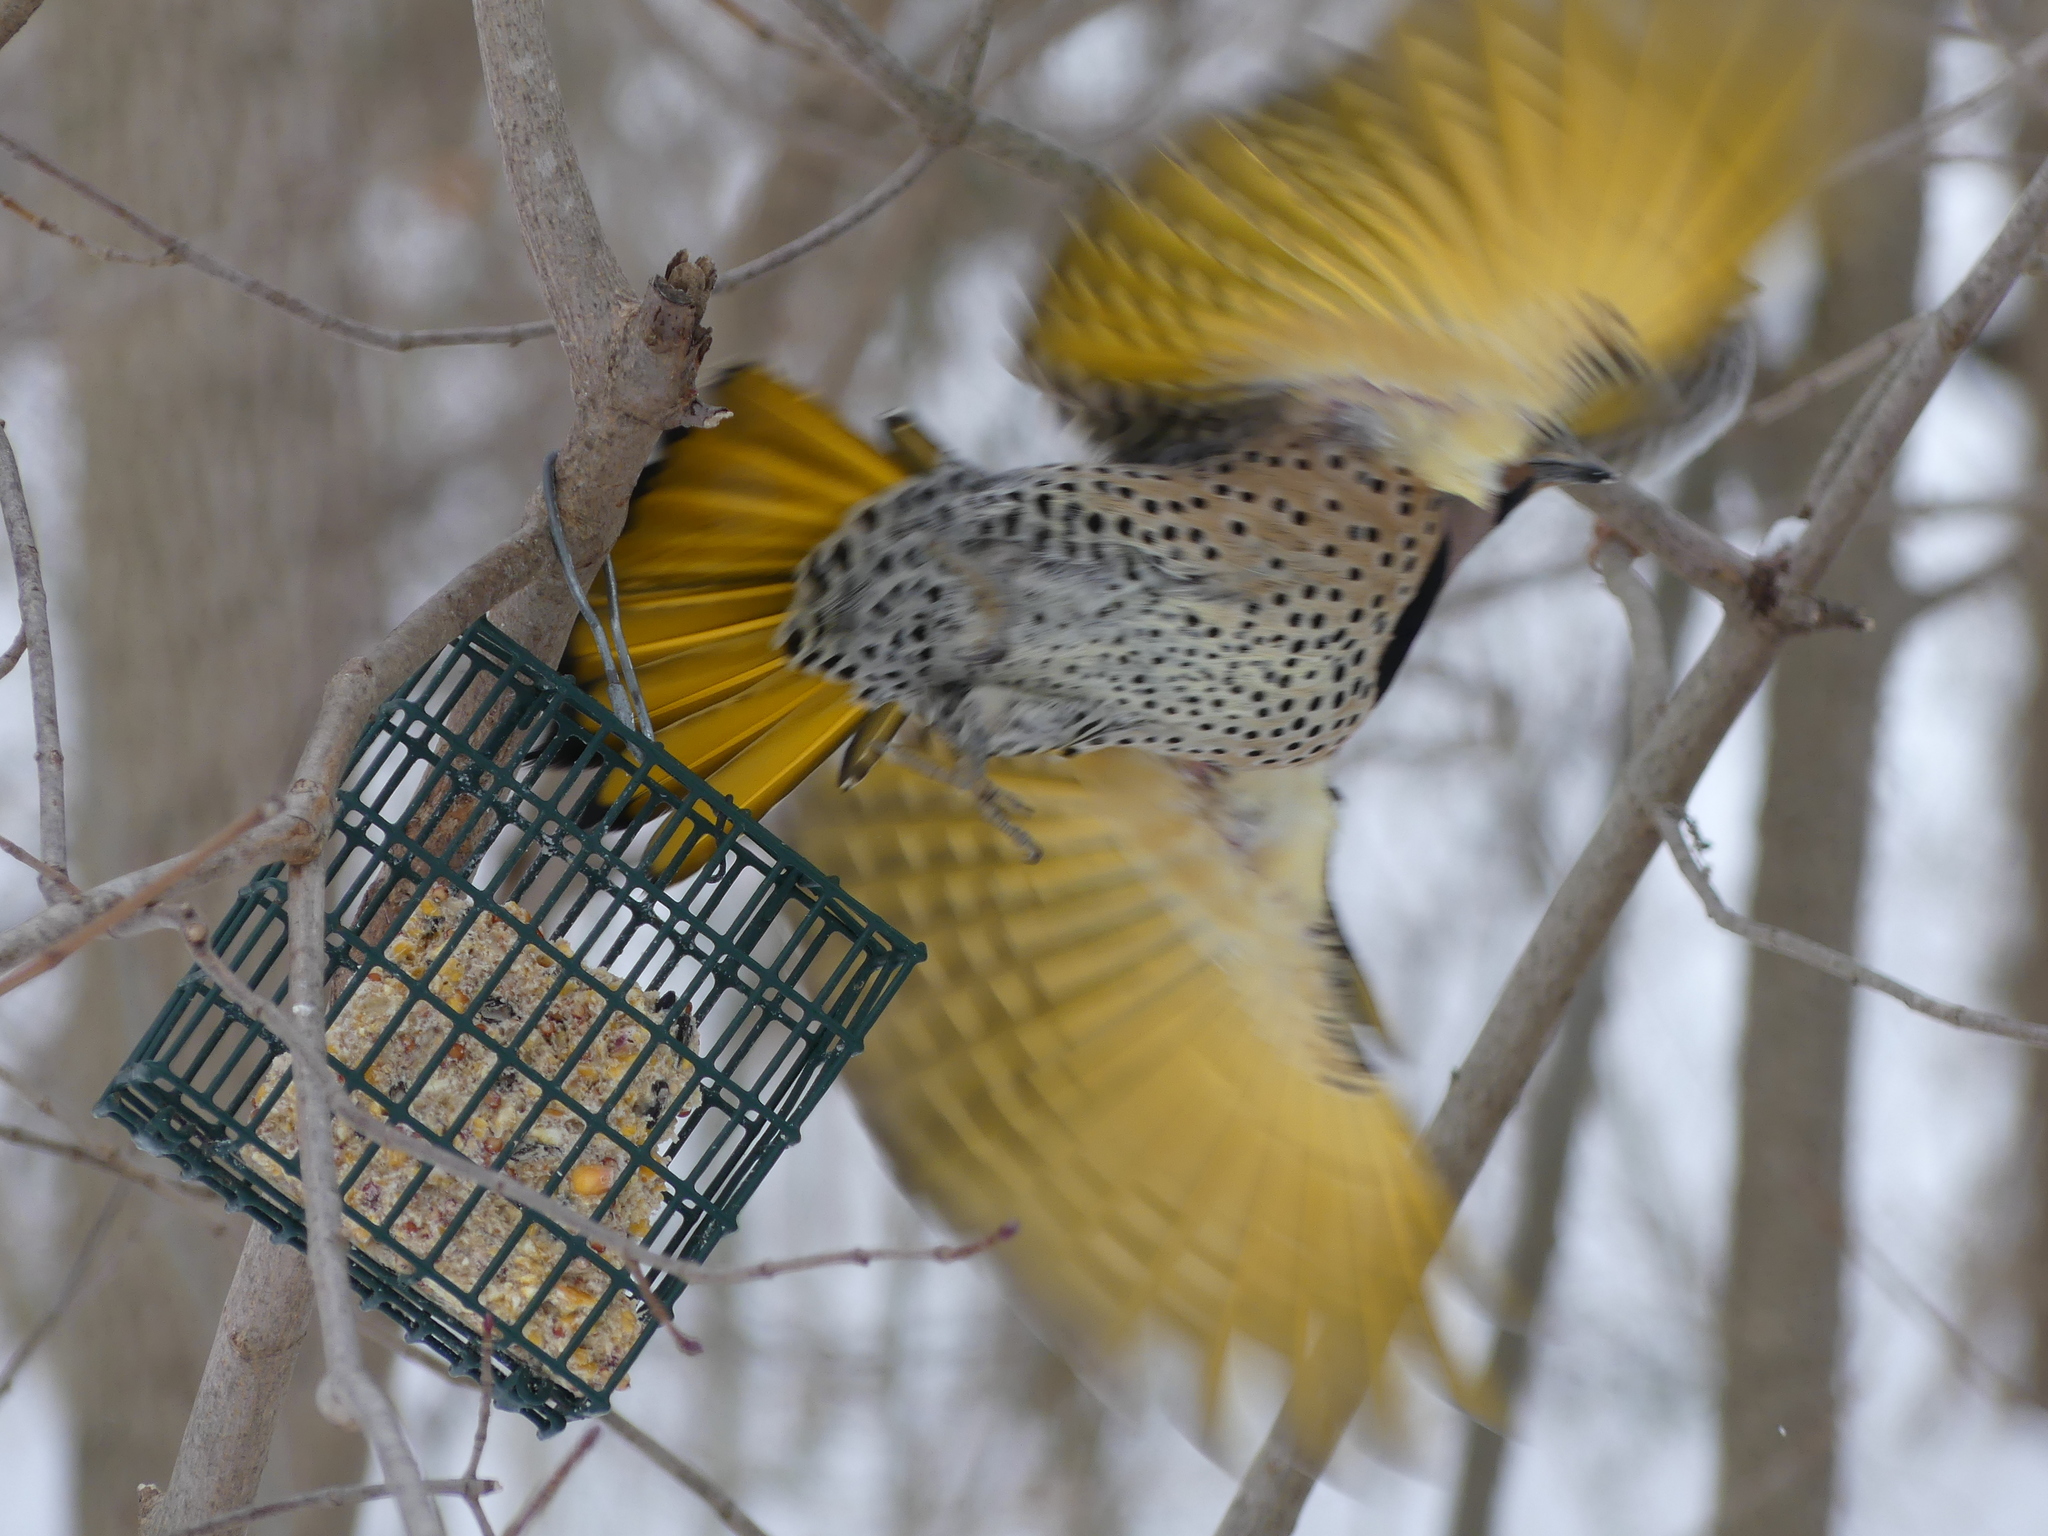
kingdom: Animalia
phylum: Chordata
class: Aves
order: Piciformes
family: Picidae
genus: Colaptes
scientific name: Colaptes auratus
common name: Northern flicker
